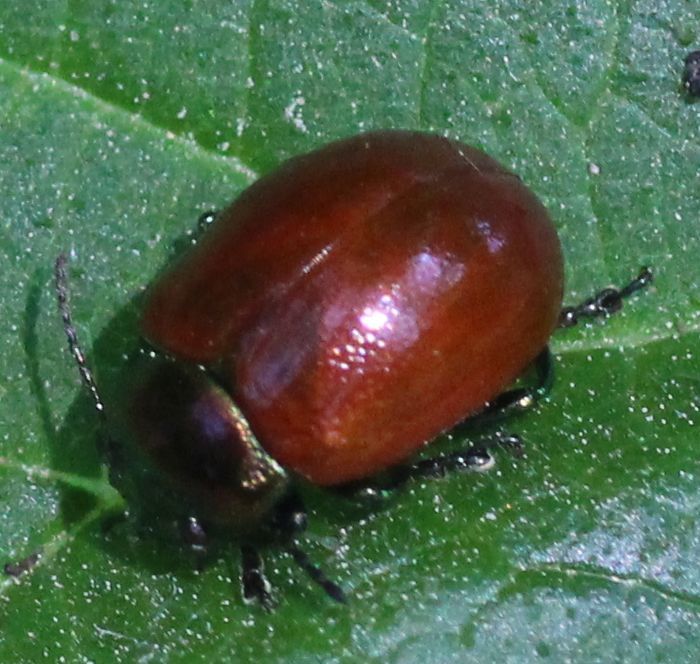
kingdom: Animalia
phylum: Arthropoda
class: Insecta
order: Coleoptera
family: Chrysomelidae
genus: Chrysomela
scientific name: Chrysomela polita
